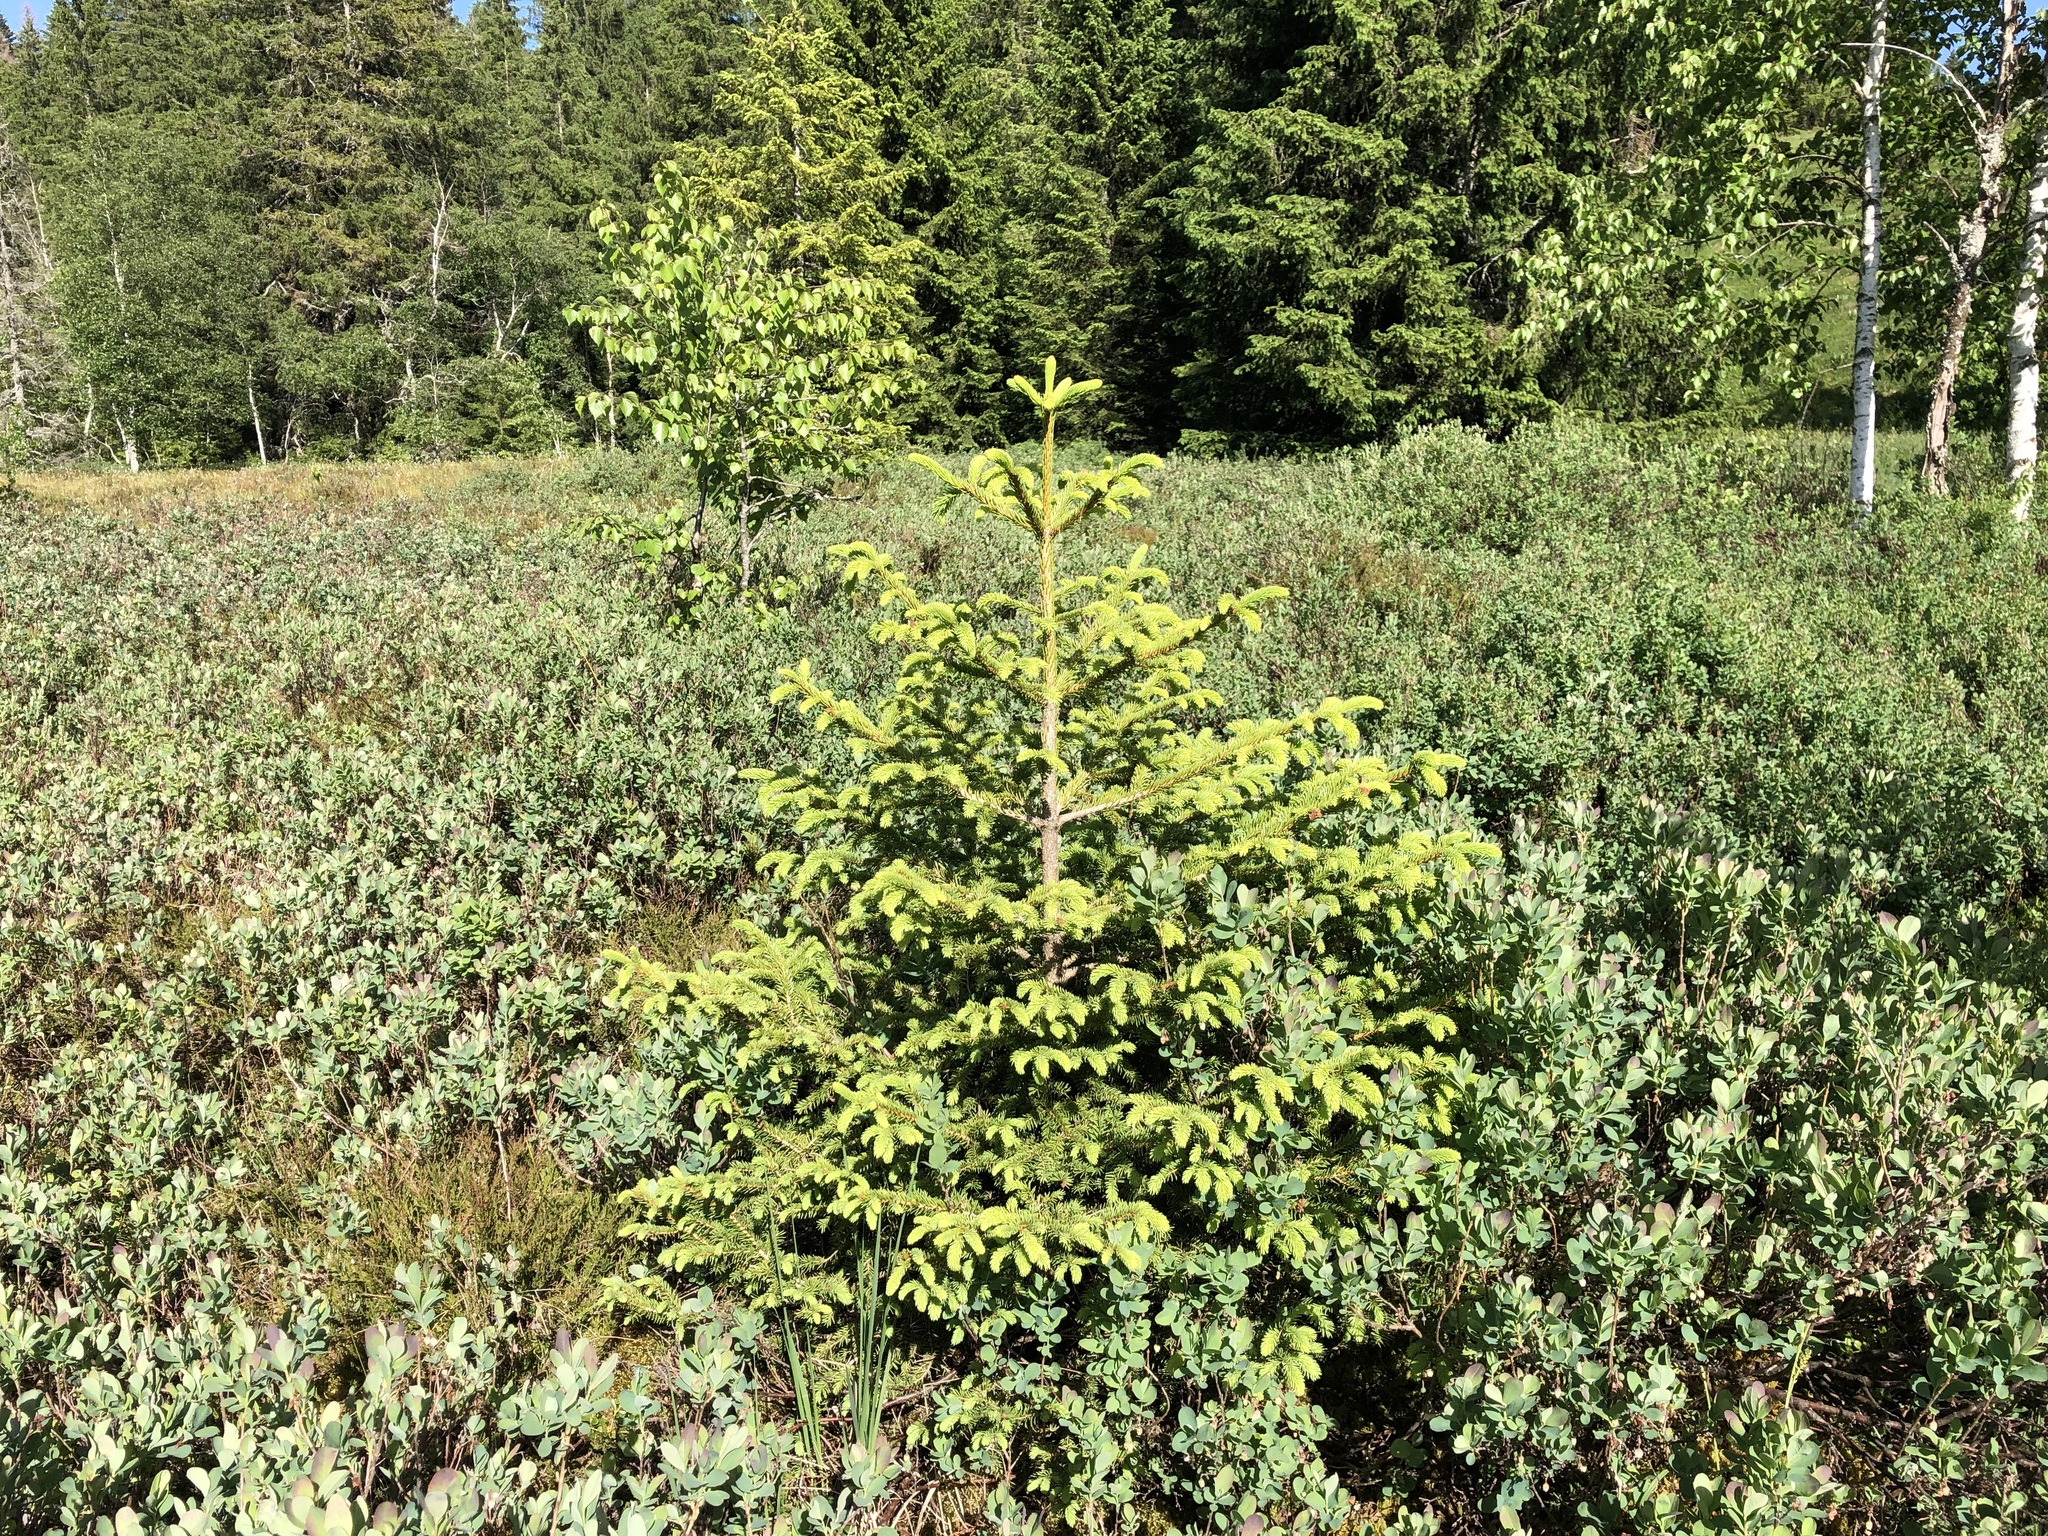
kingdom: Plantae
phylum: Tracheophyta
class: Pinopsida
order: Pinales
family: Pinaceae
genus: Picea
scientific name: Picea abies
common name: Norway spruce
